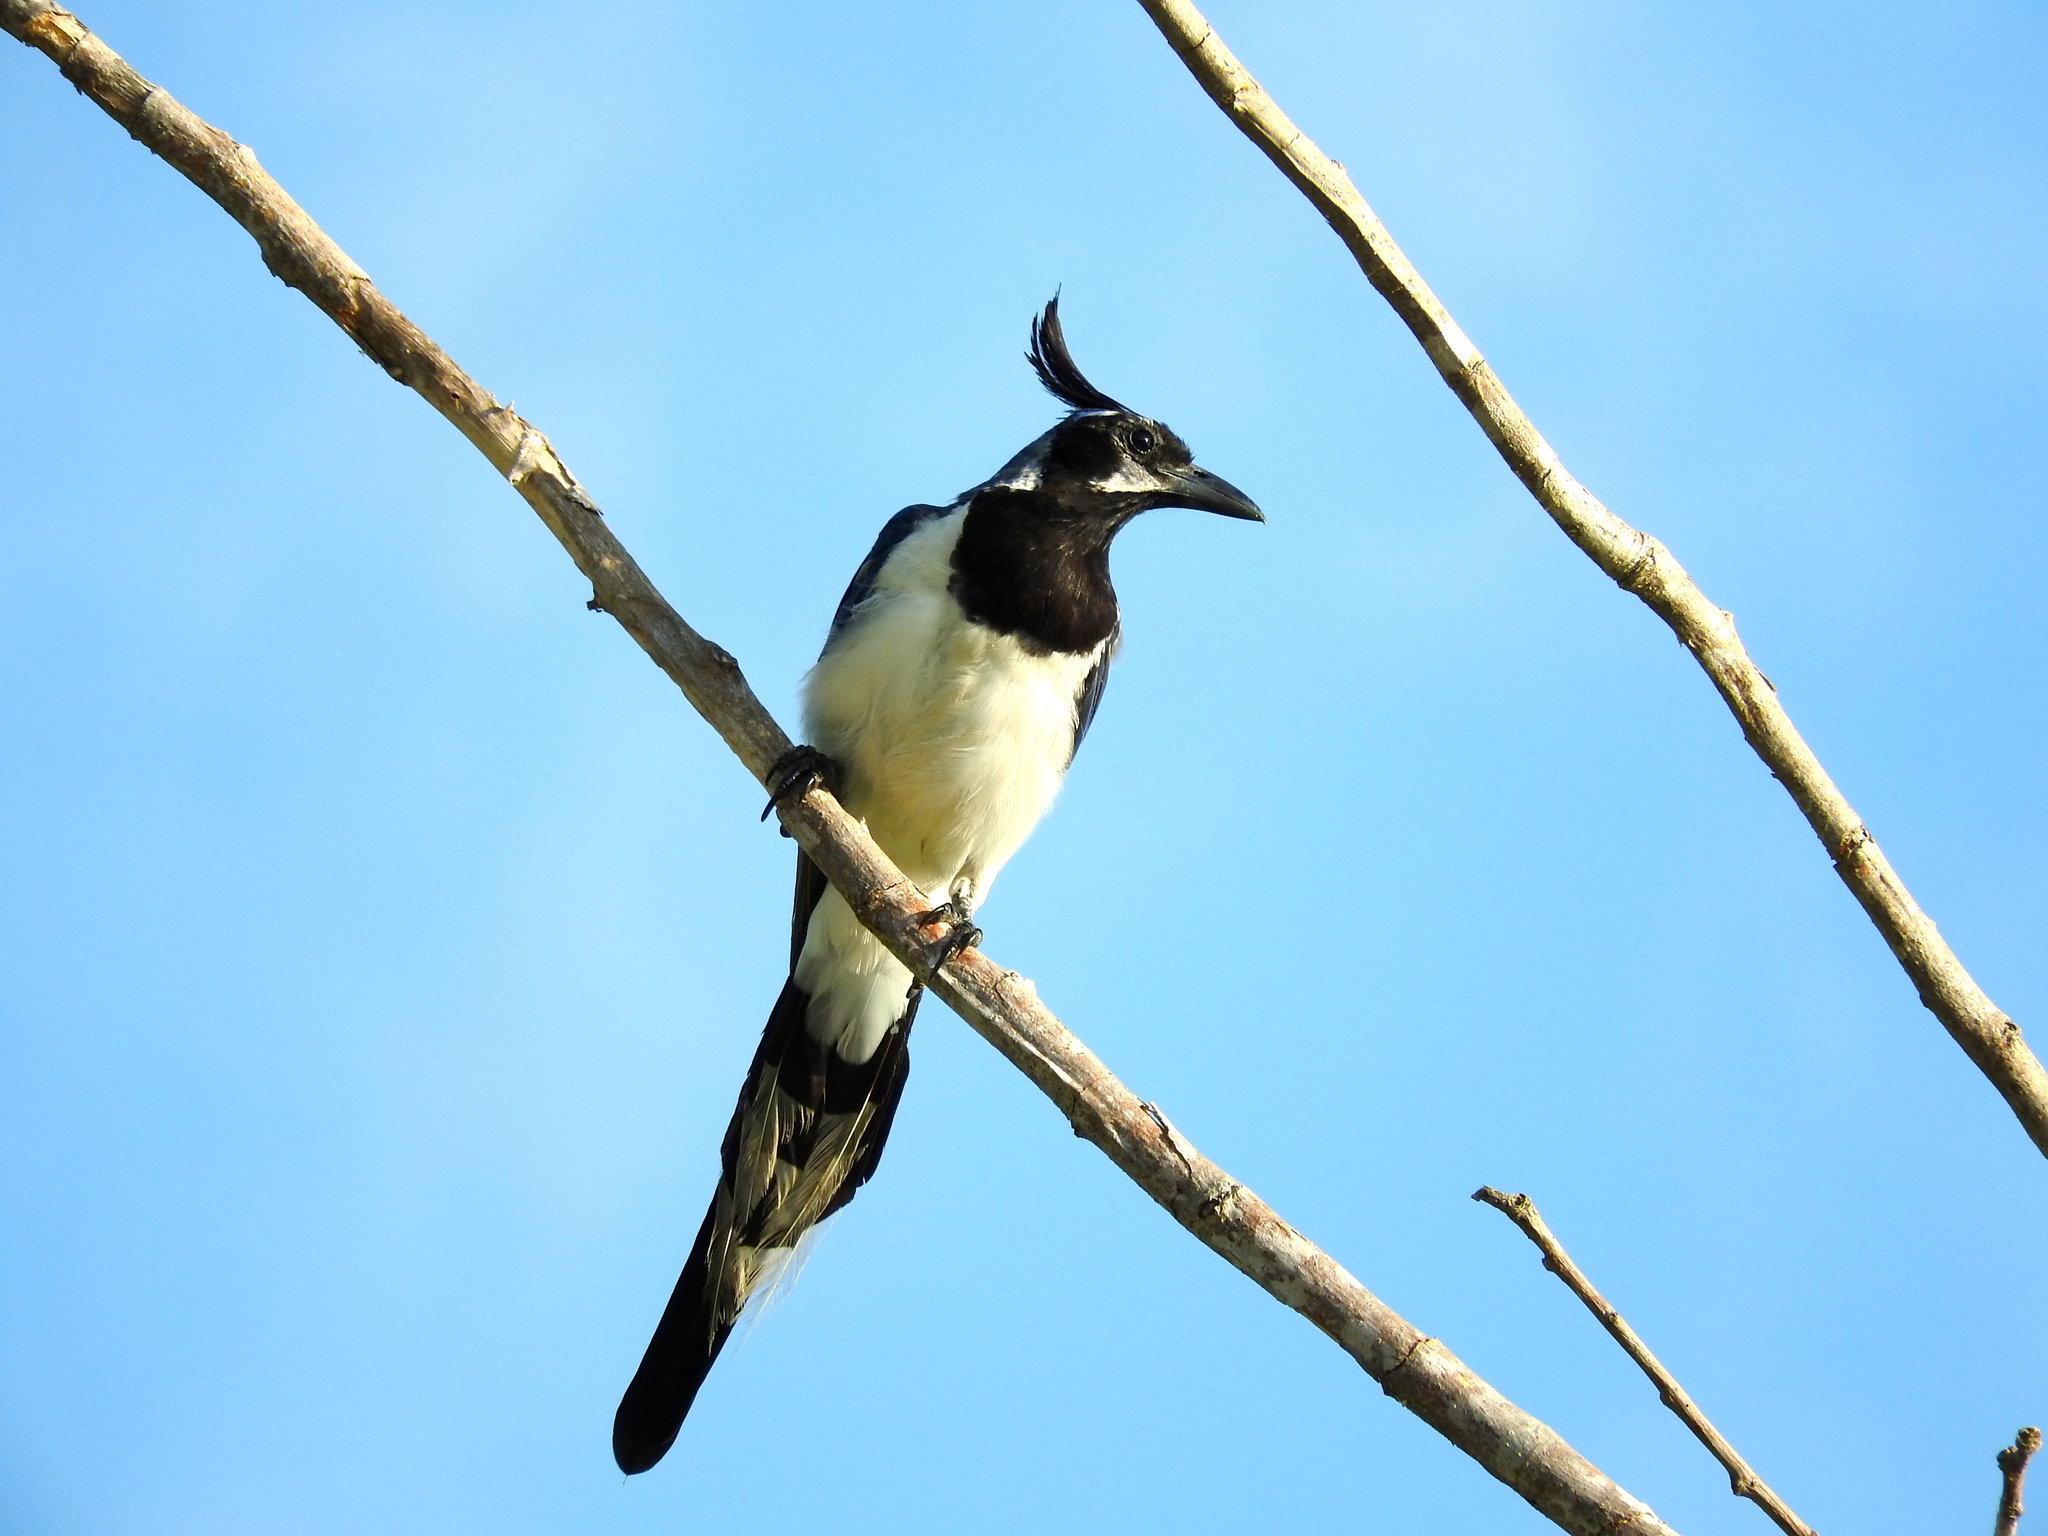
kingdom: Animalia
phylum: Chordata
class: Aves
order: Passeriformes
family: Corvidae
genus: Calocitta
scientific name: Calocitta colliei
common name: Black-throated magpie-jay
